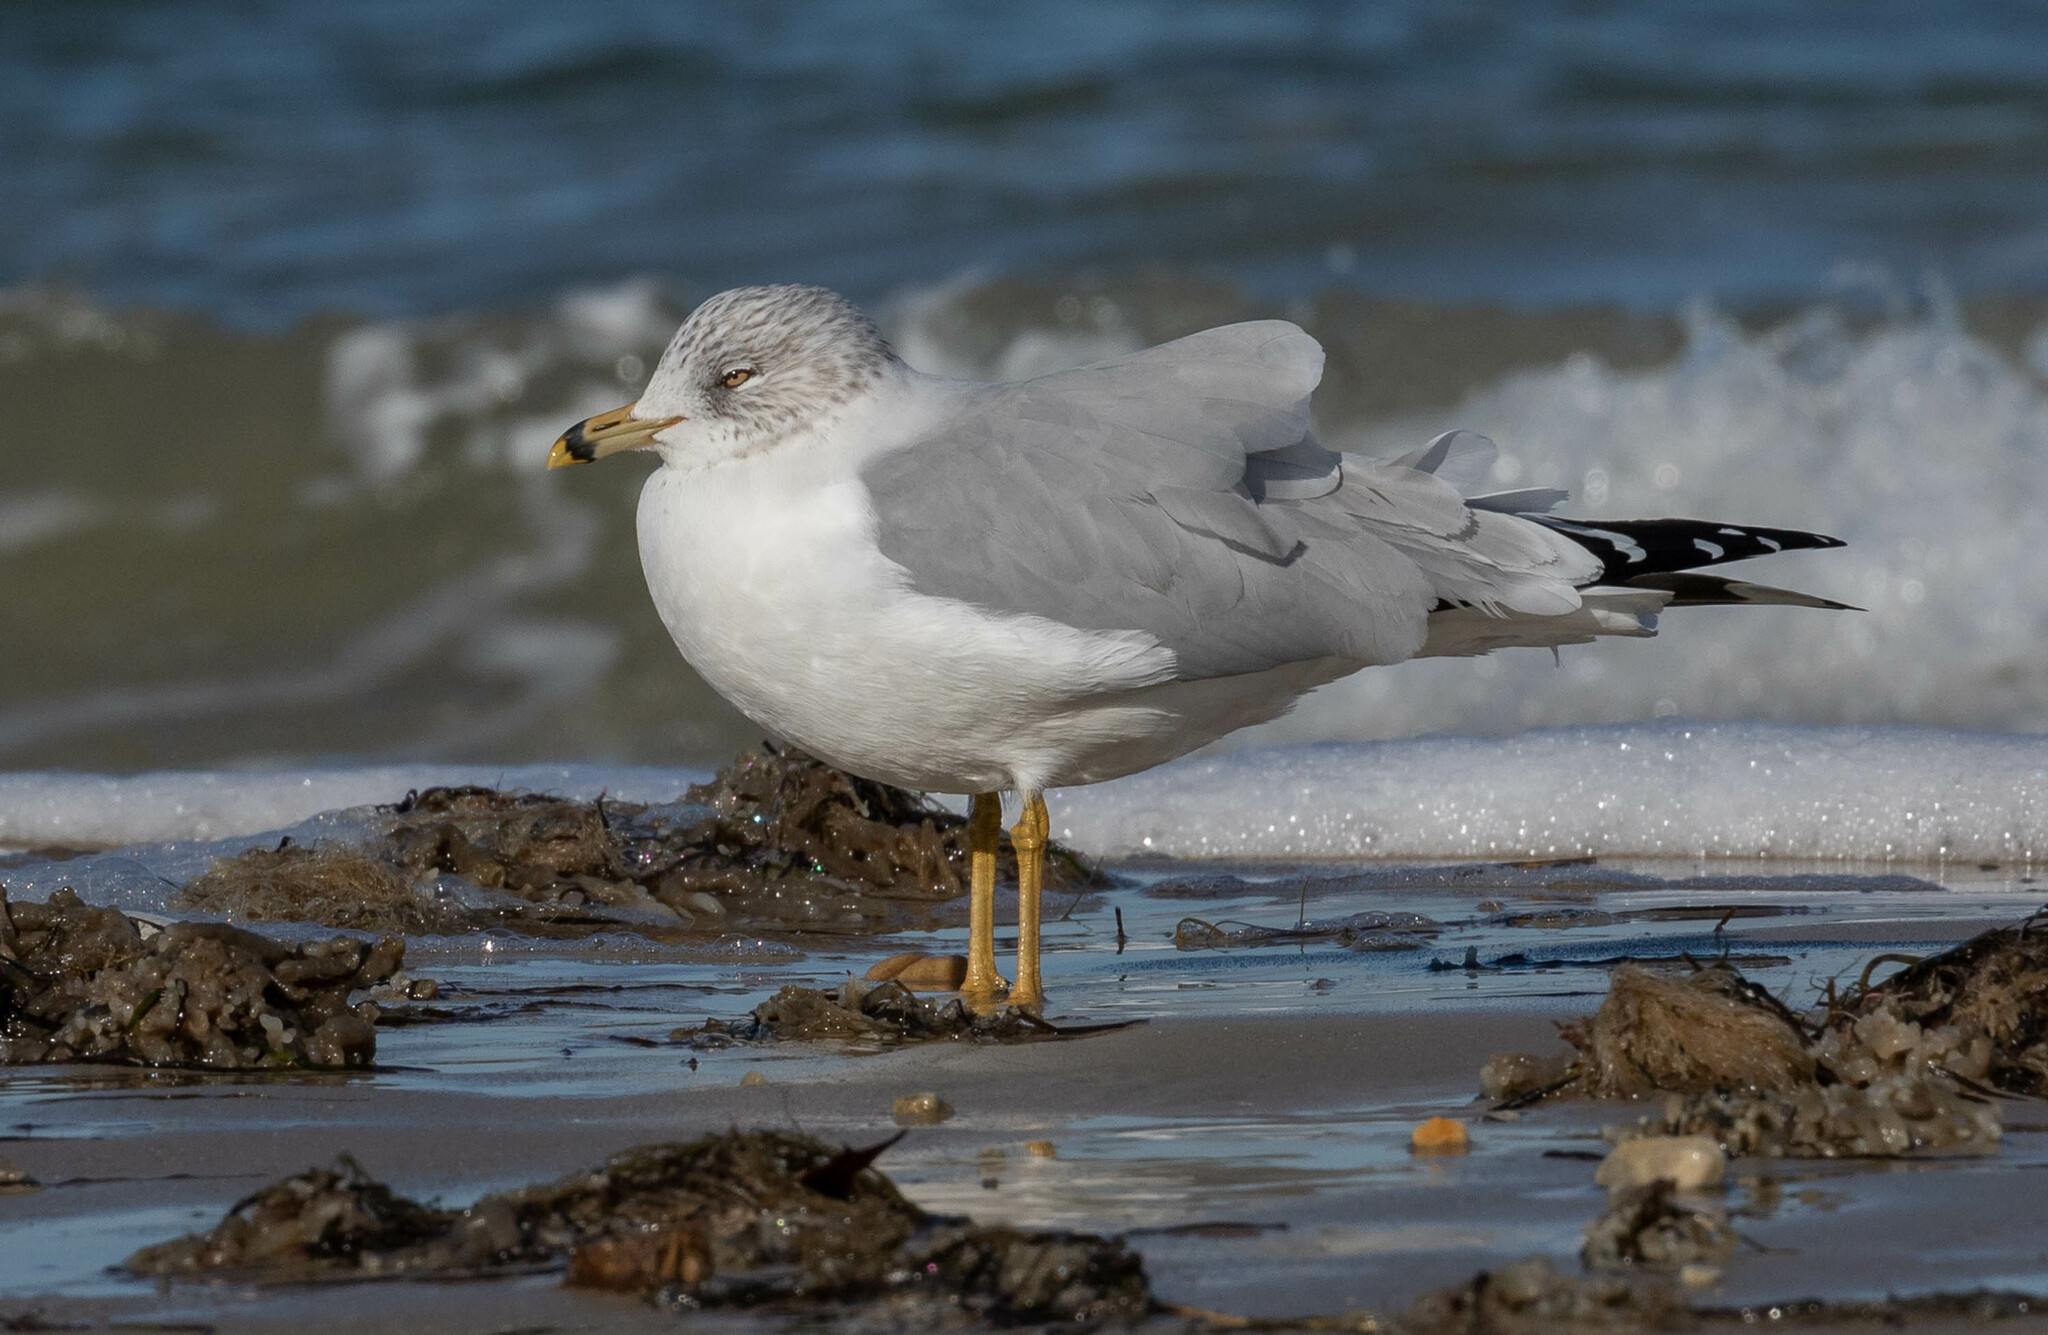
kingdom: Animalia
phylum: Chordata
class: Aves
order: Charadriiformes
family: Laridae
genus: Larus
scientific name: Larus delawarensis
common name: Ring-billed gull
